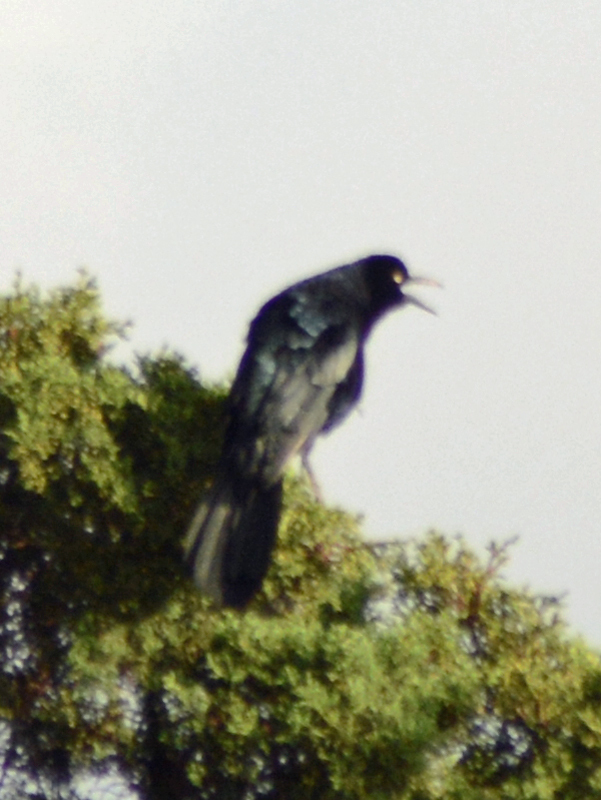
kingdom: Animalia
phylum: Chordata
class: Aves
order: Passeriformes
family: Icteridae
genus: Quiscalus
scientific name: Quiscalus mexicanus
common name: Great-tailed grackle
